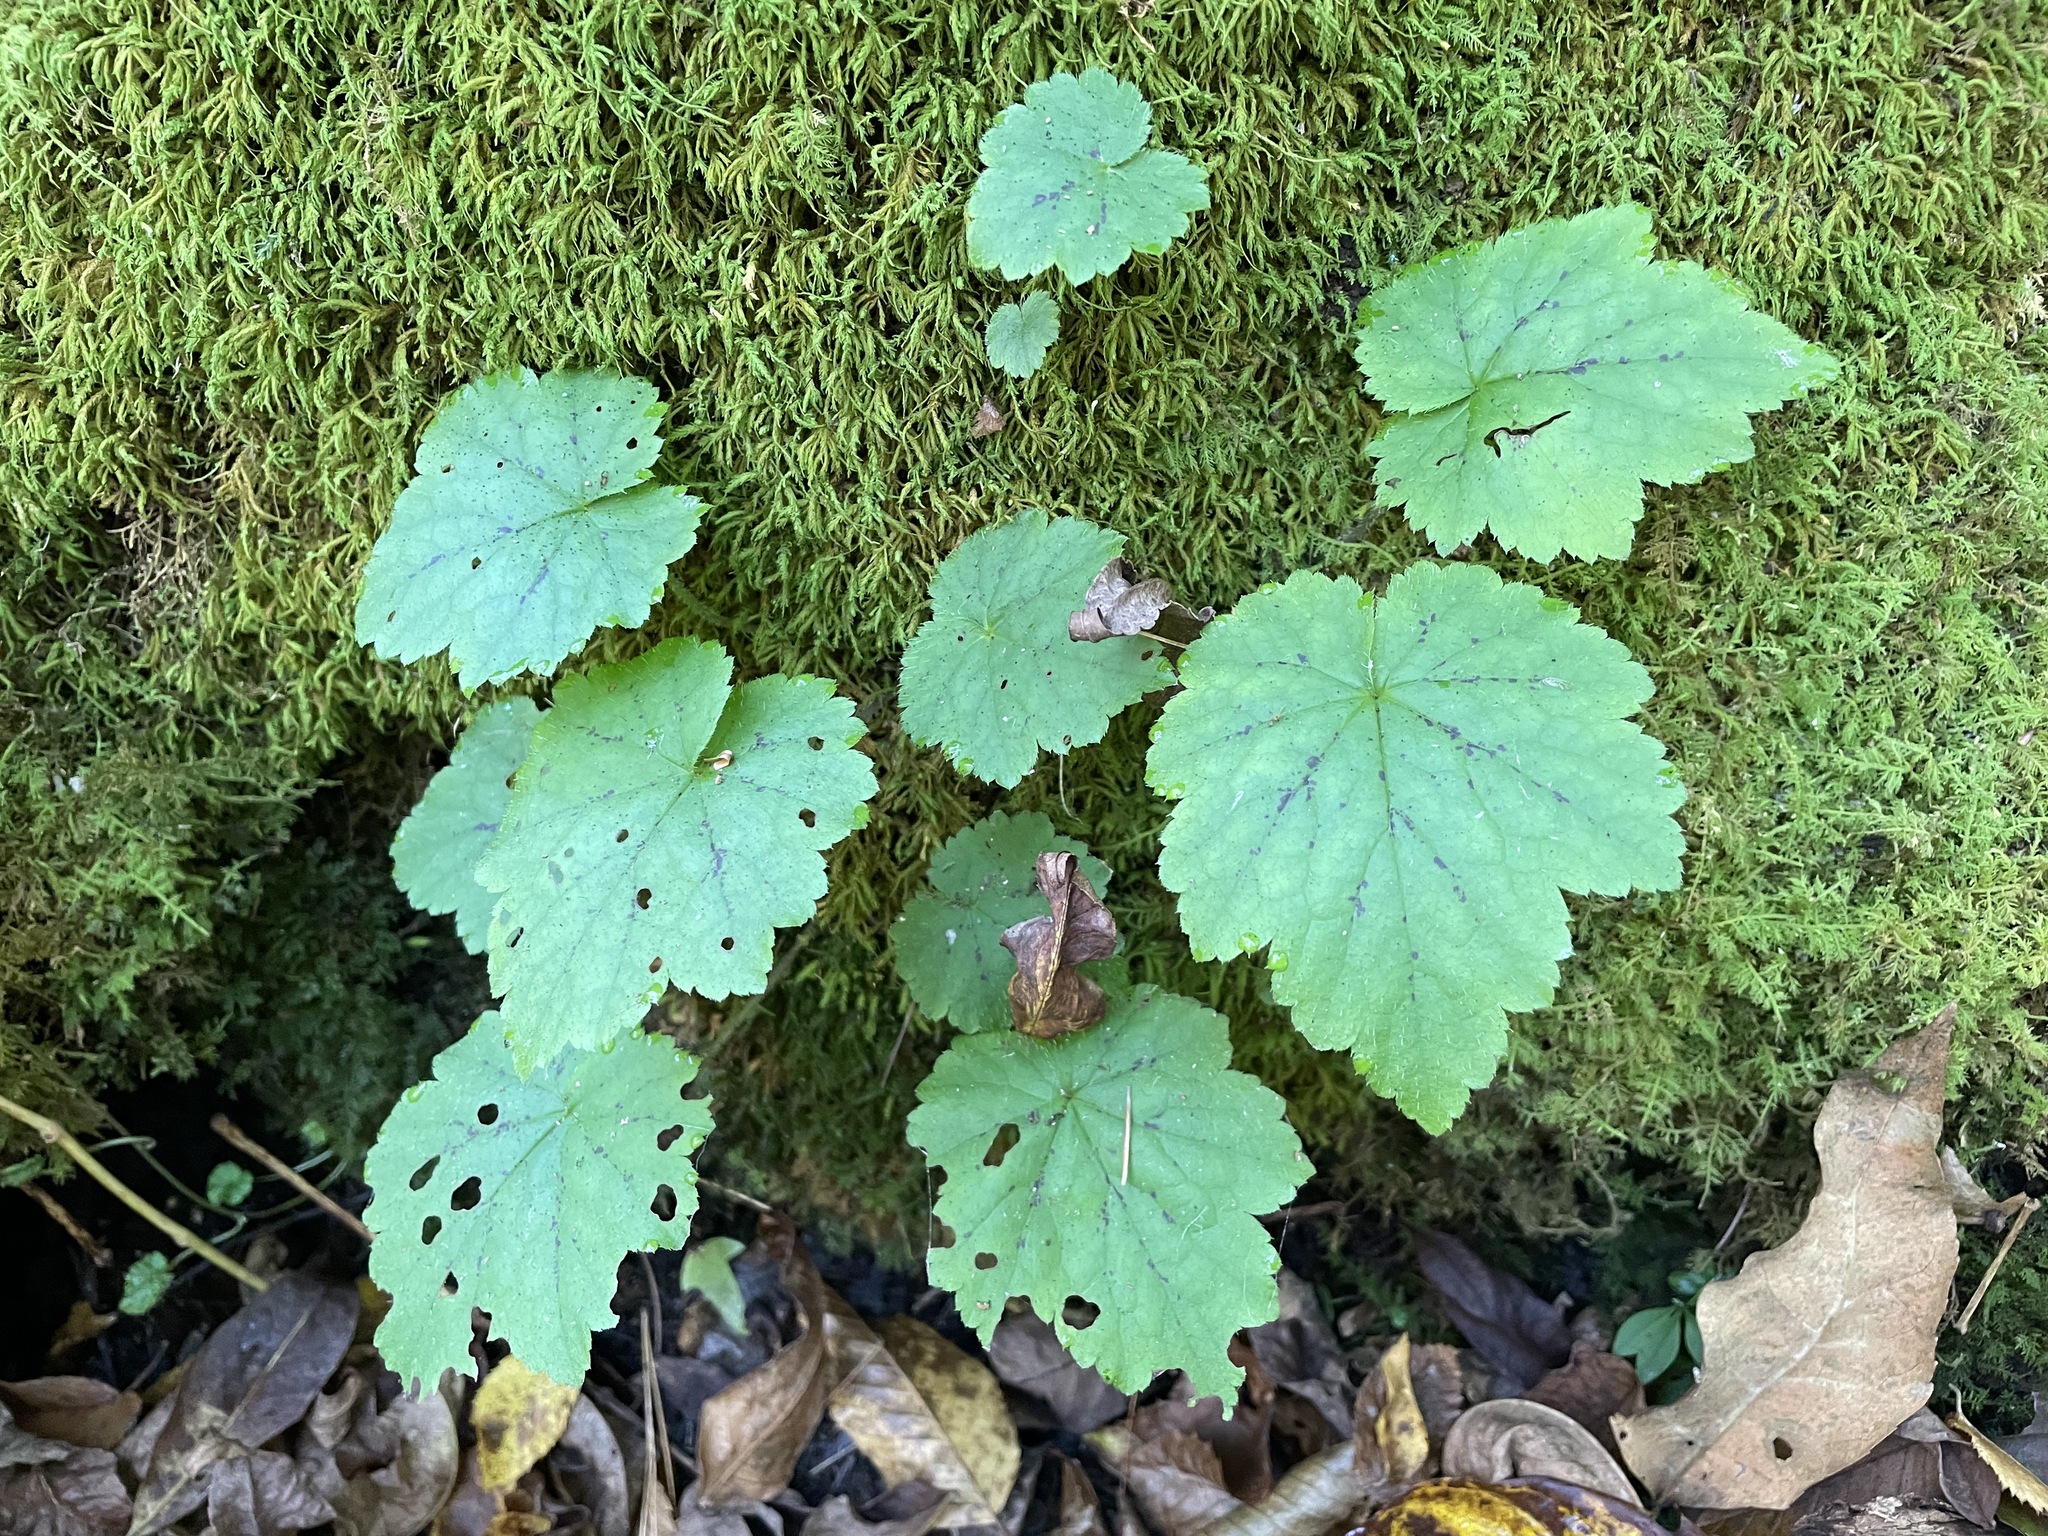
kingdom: Plantae
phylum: Tracheophyta
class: Magnoliopsida
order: Saxifragales
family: Saxifragaceae
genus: Tiarella
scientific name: Tiarella stolonifera
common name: Stoloniferous foamflower
